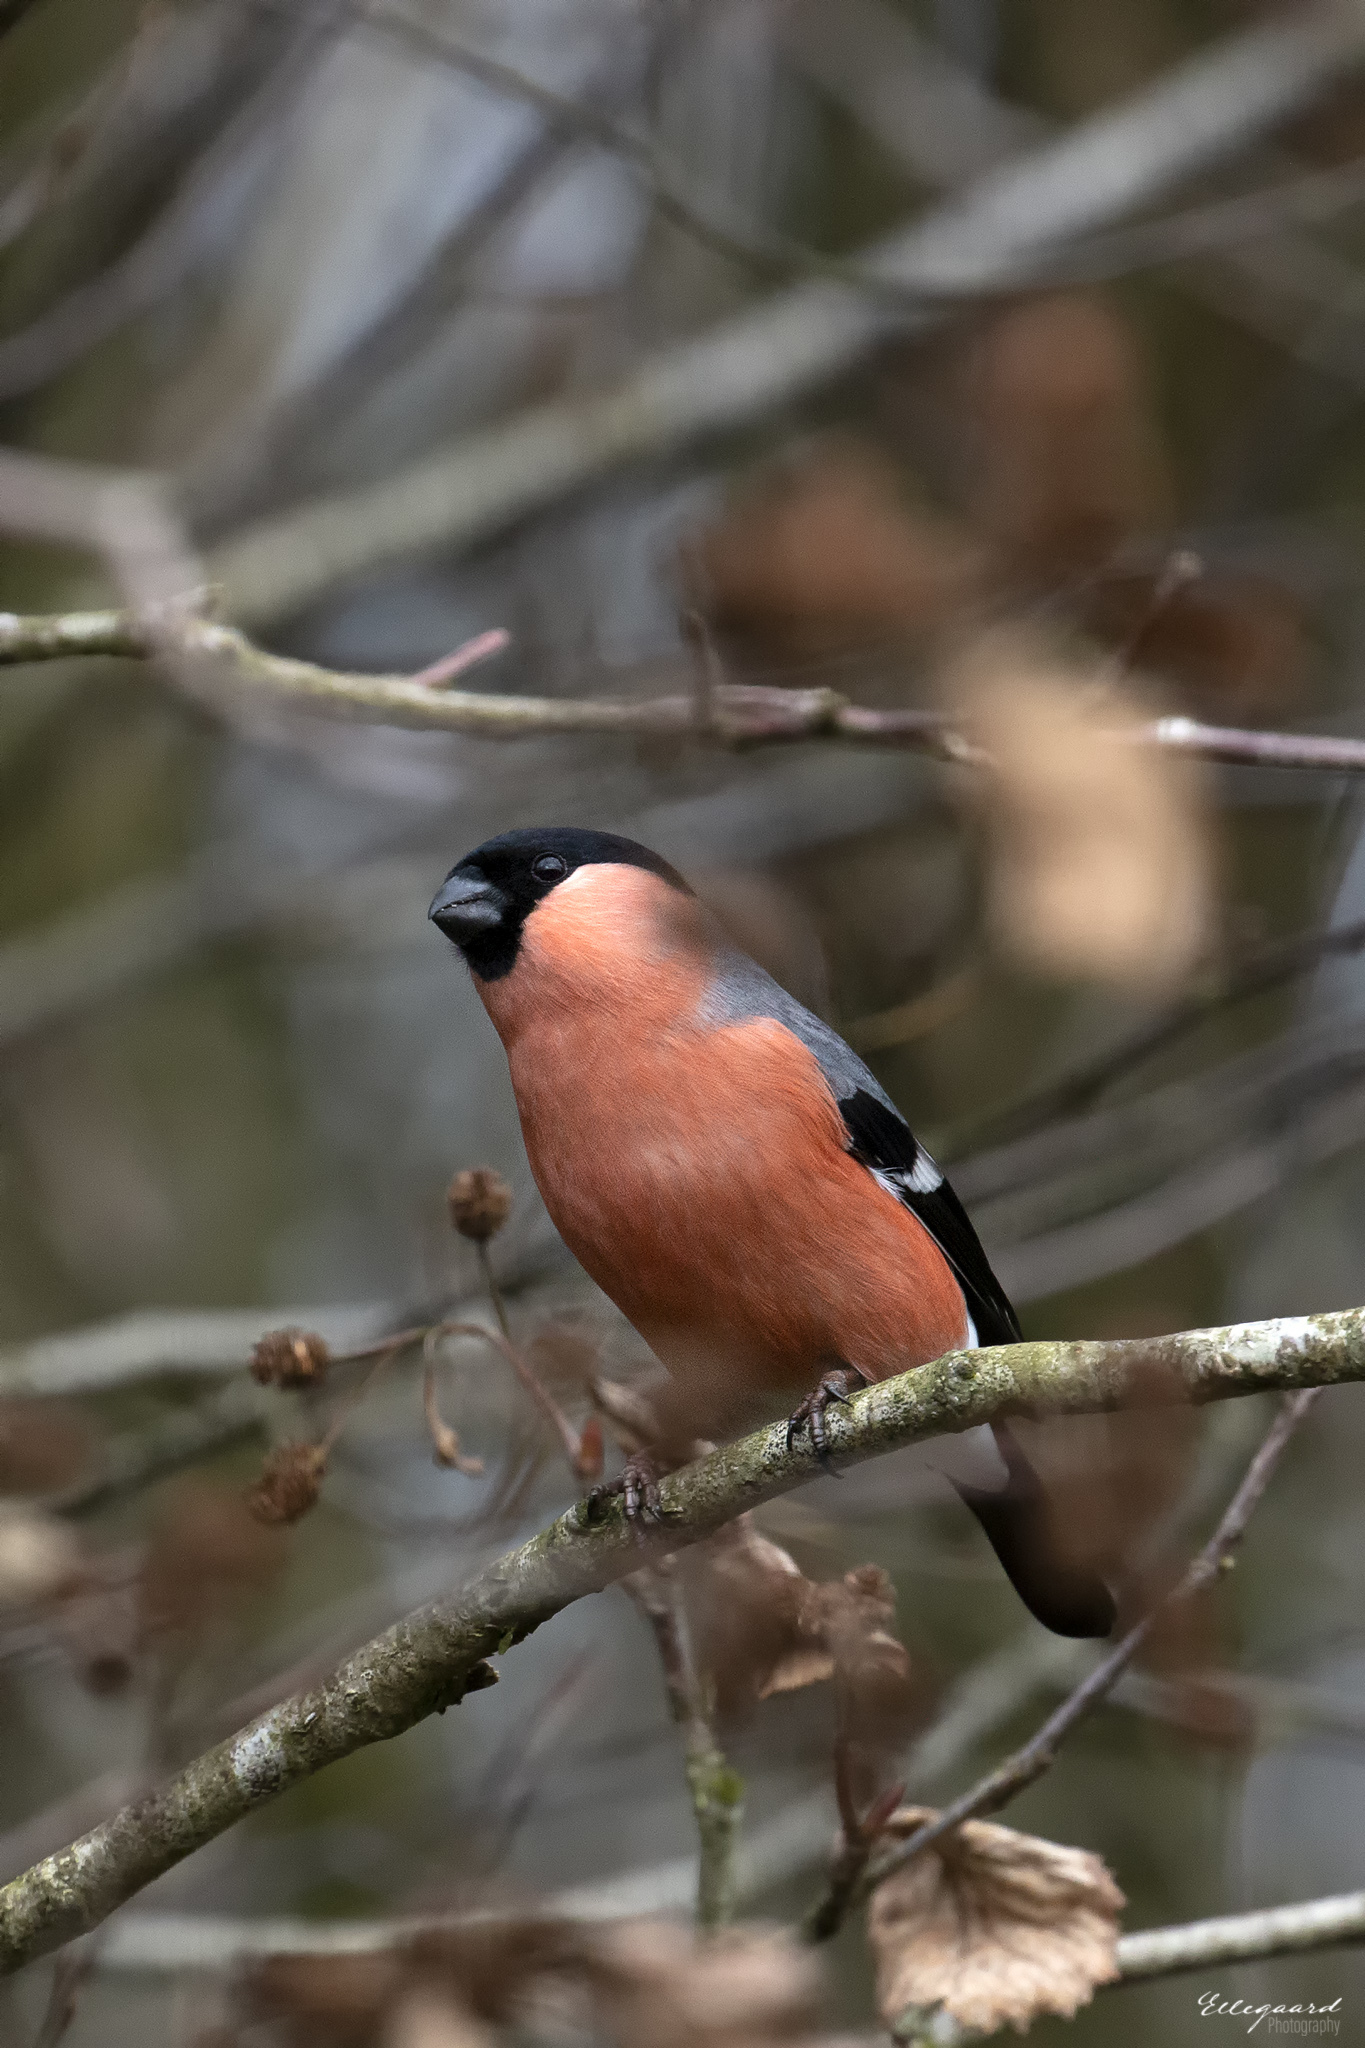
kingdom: Animalia
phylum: Chordata
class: Aves
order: Passeriformes
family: Fringillidae
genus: Pyrrhula
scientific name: Pyrrhula pyrrhula
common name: Eurasian bullfinch
